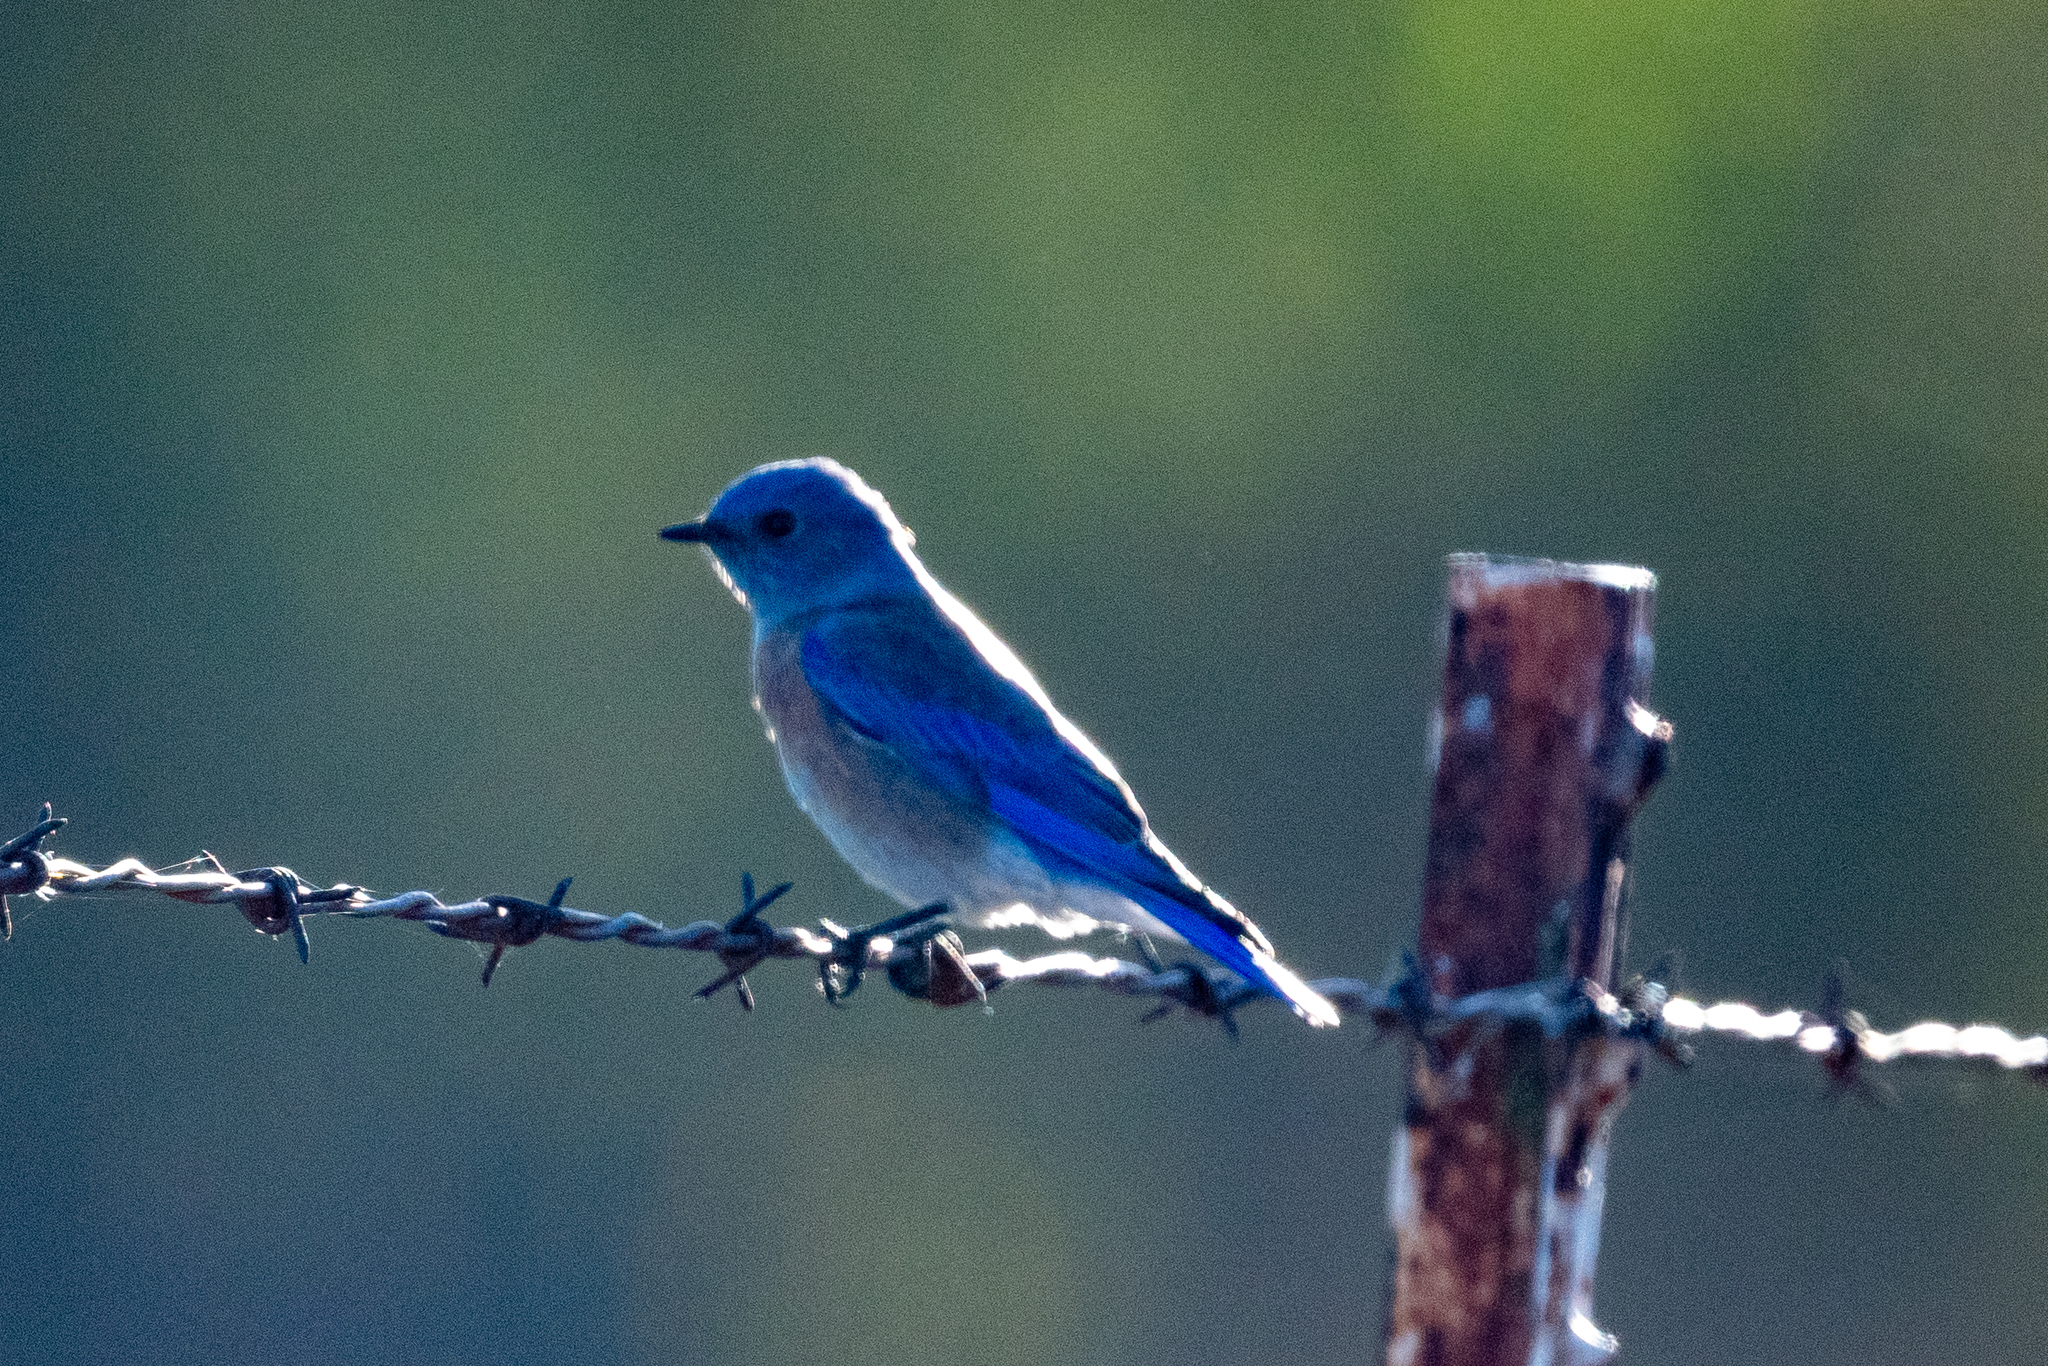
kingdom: Animalia
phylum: Chordata
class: Aves
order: Passeriformes
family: Turdidae
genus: Sialia
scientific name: Sialia mexicana
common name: Western bluebird
